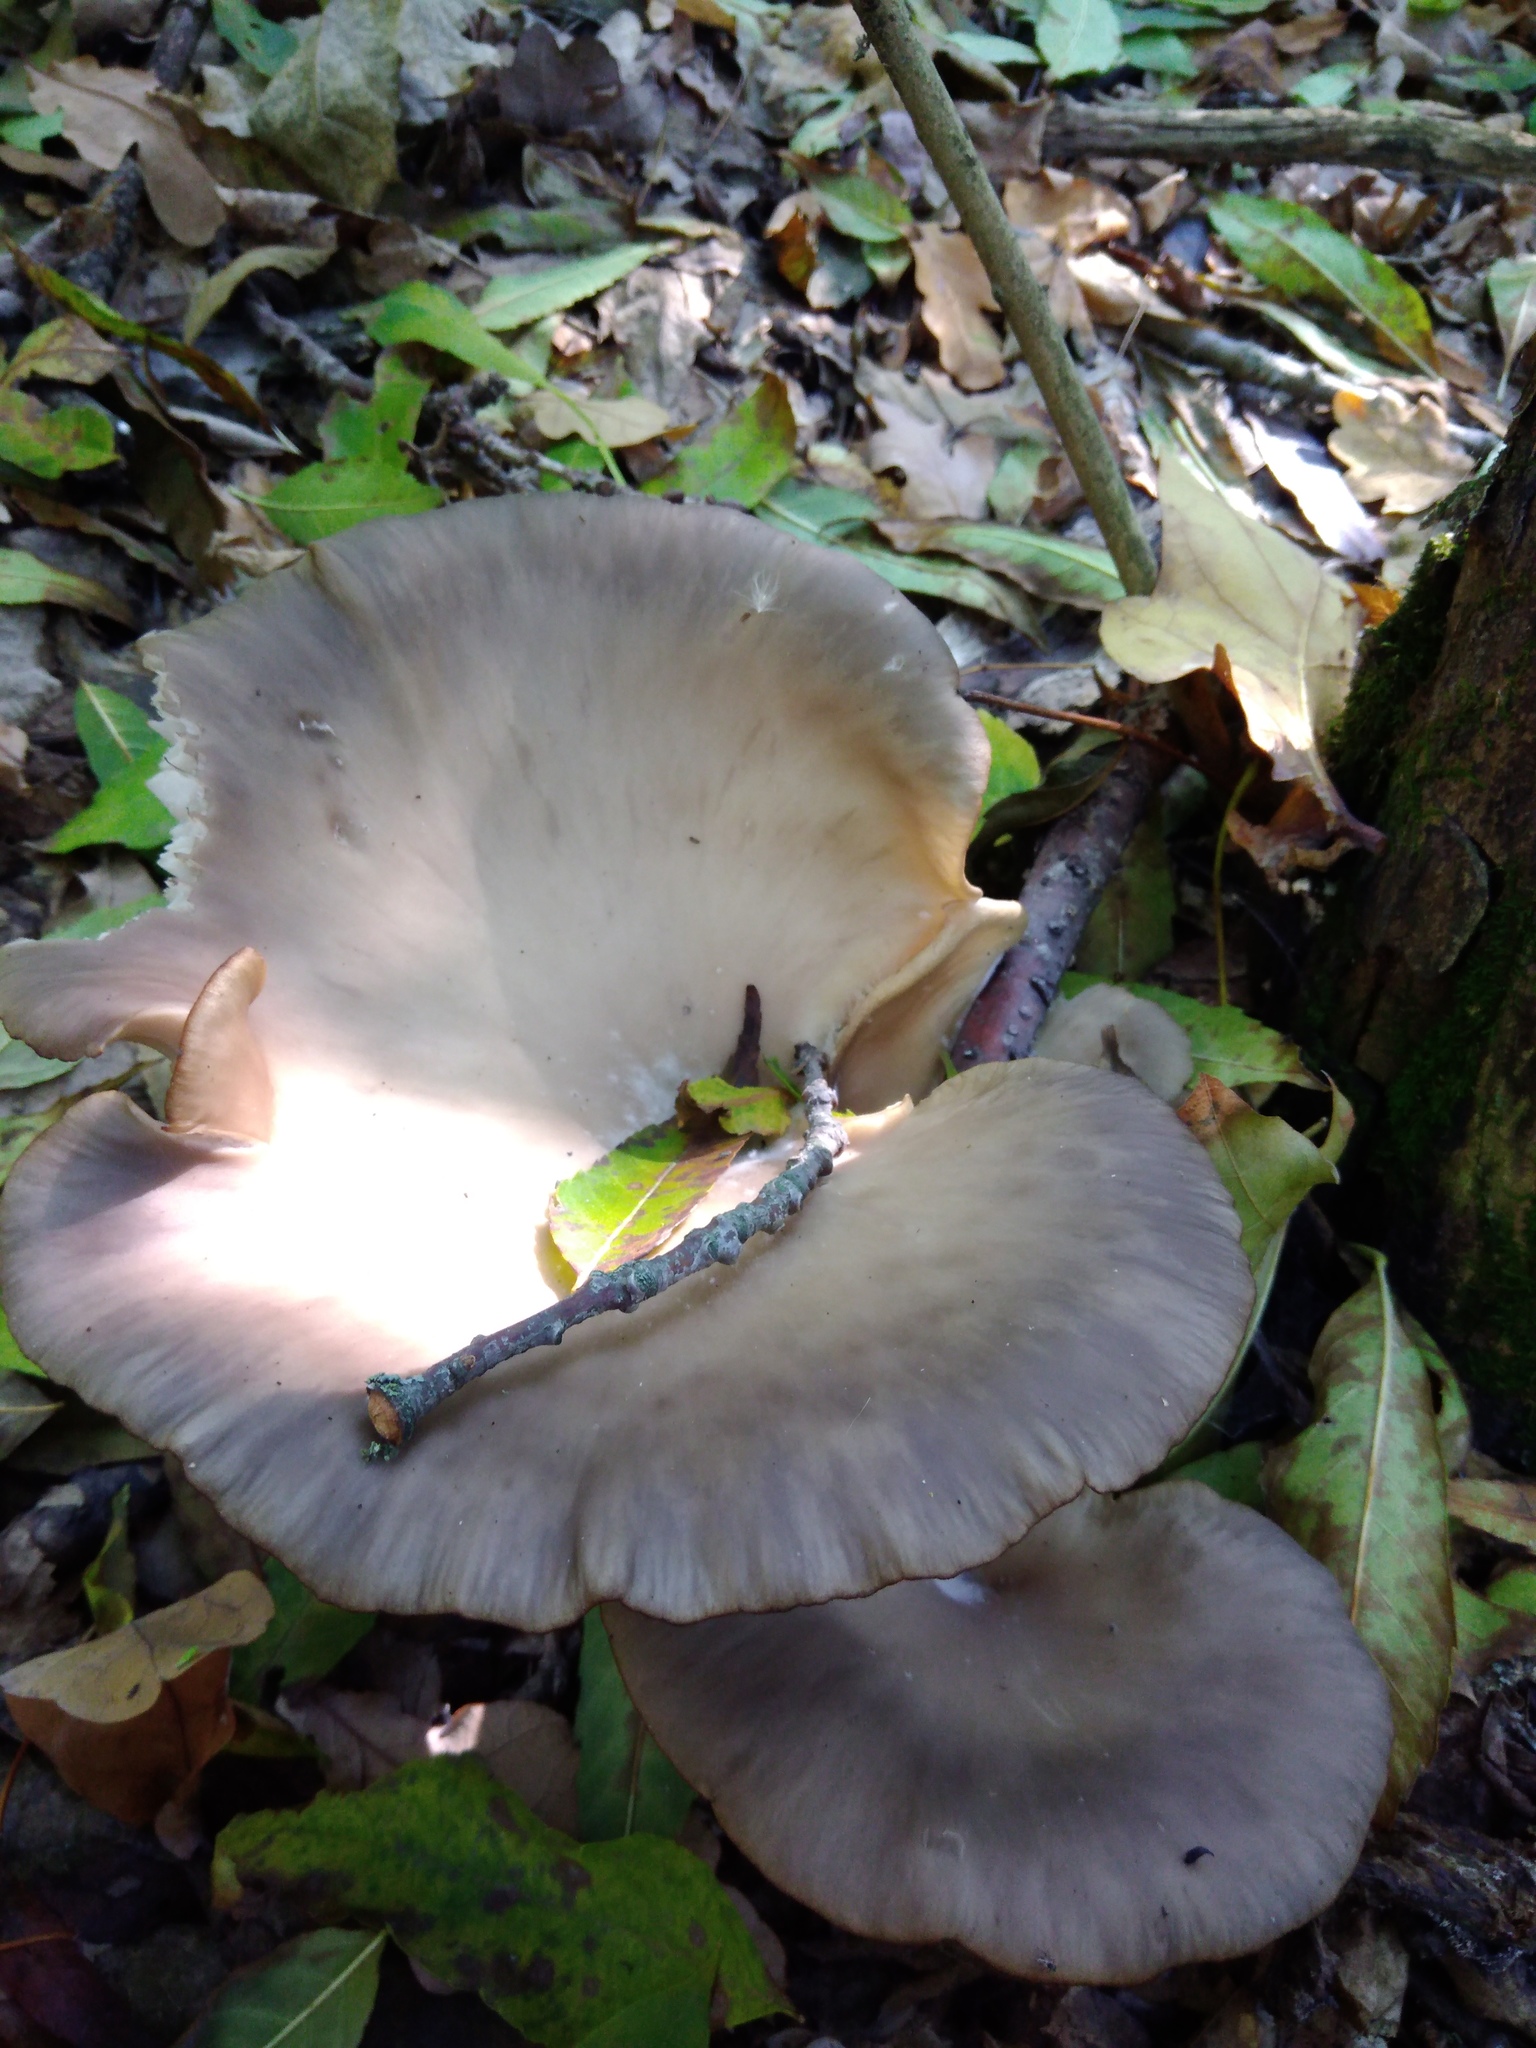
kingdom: Fungi
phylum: Basidiomycota
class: Agaricomycetes
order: Agaricales
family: Pleurotaceae
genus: Pleurotus
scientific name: Pleurotus ostreatus
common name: Oyster mushroom
